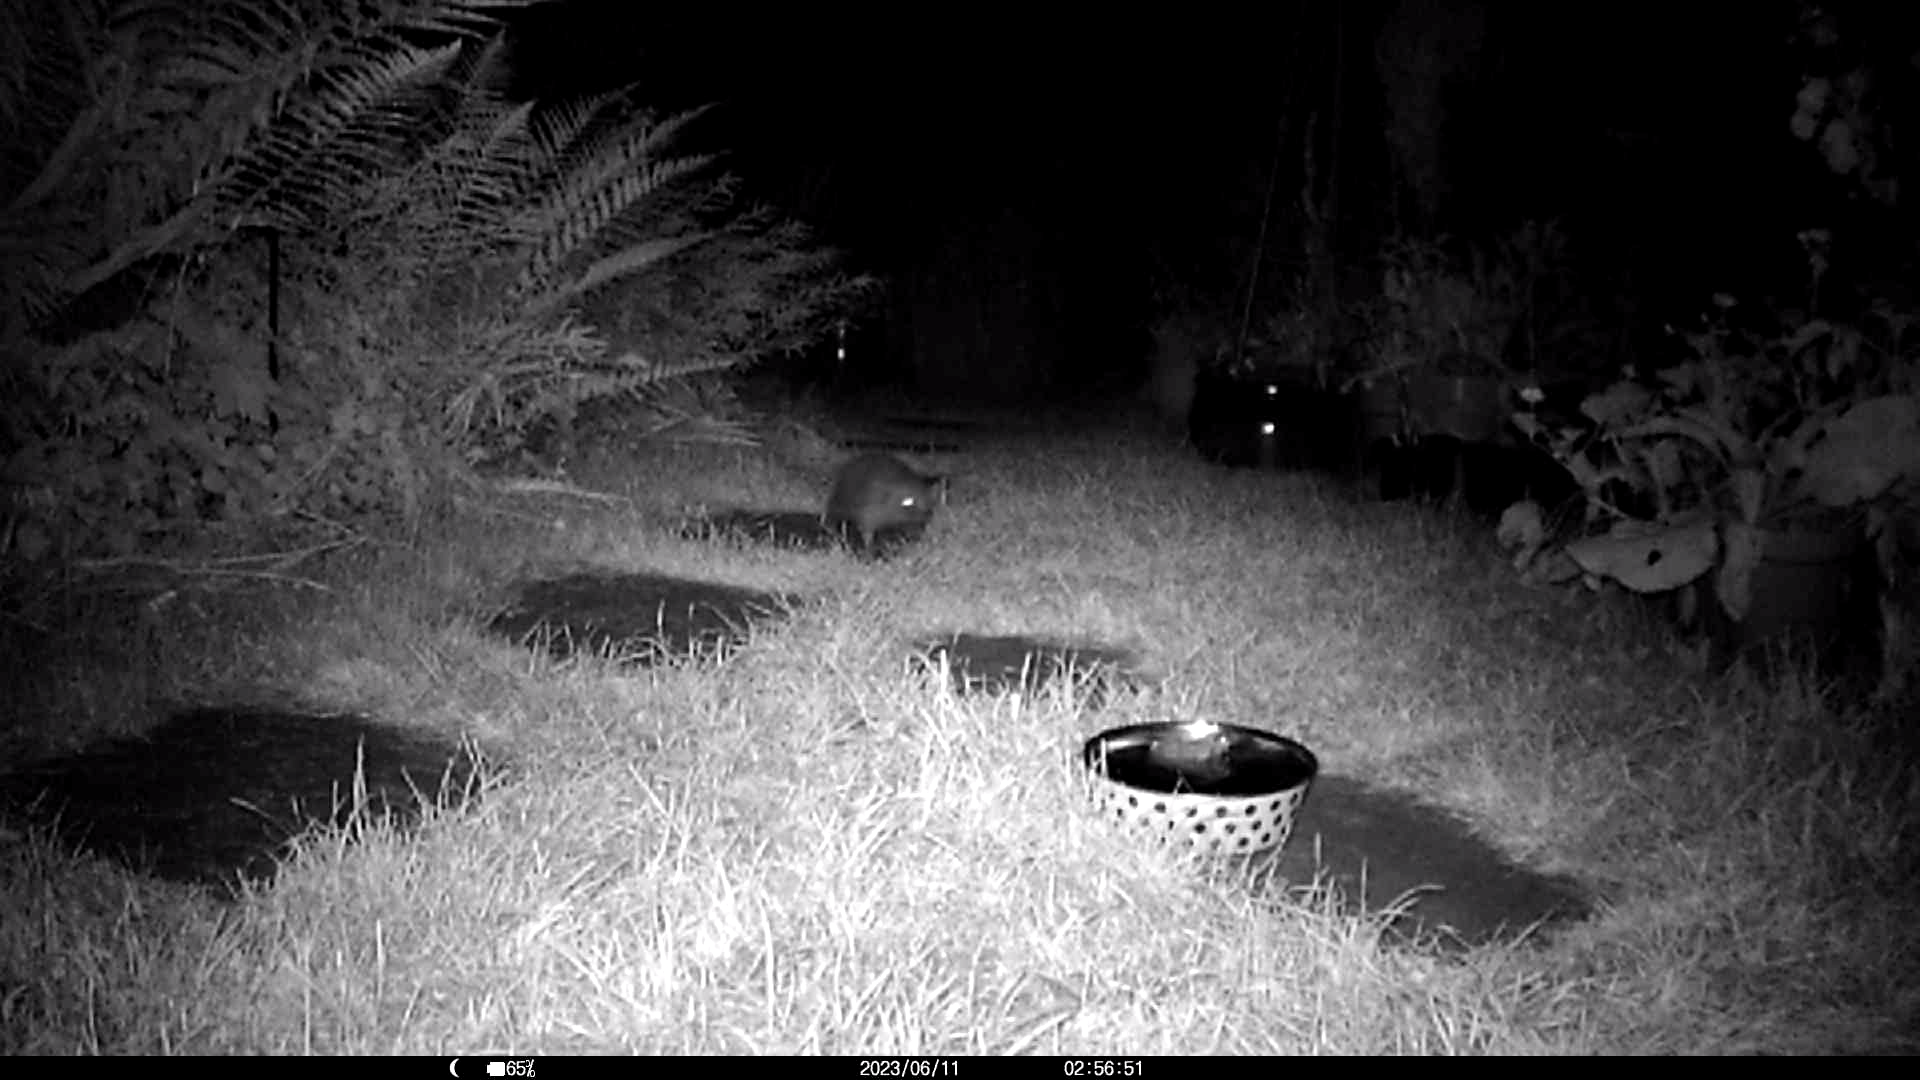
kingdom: Animalia
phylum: Chordata
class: Mammalia
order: Erinaceomorpha
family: Erinaceidae
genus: Erinaceus
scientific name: Erinaceus europaeus
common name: West european hedgehog
